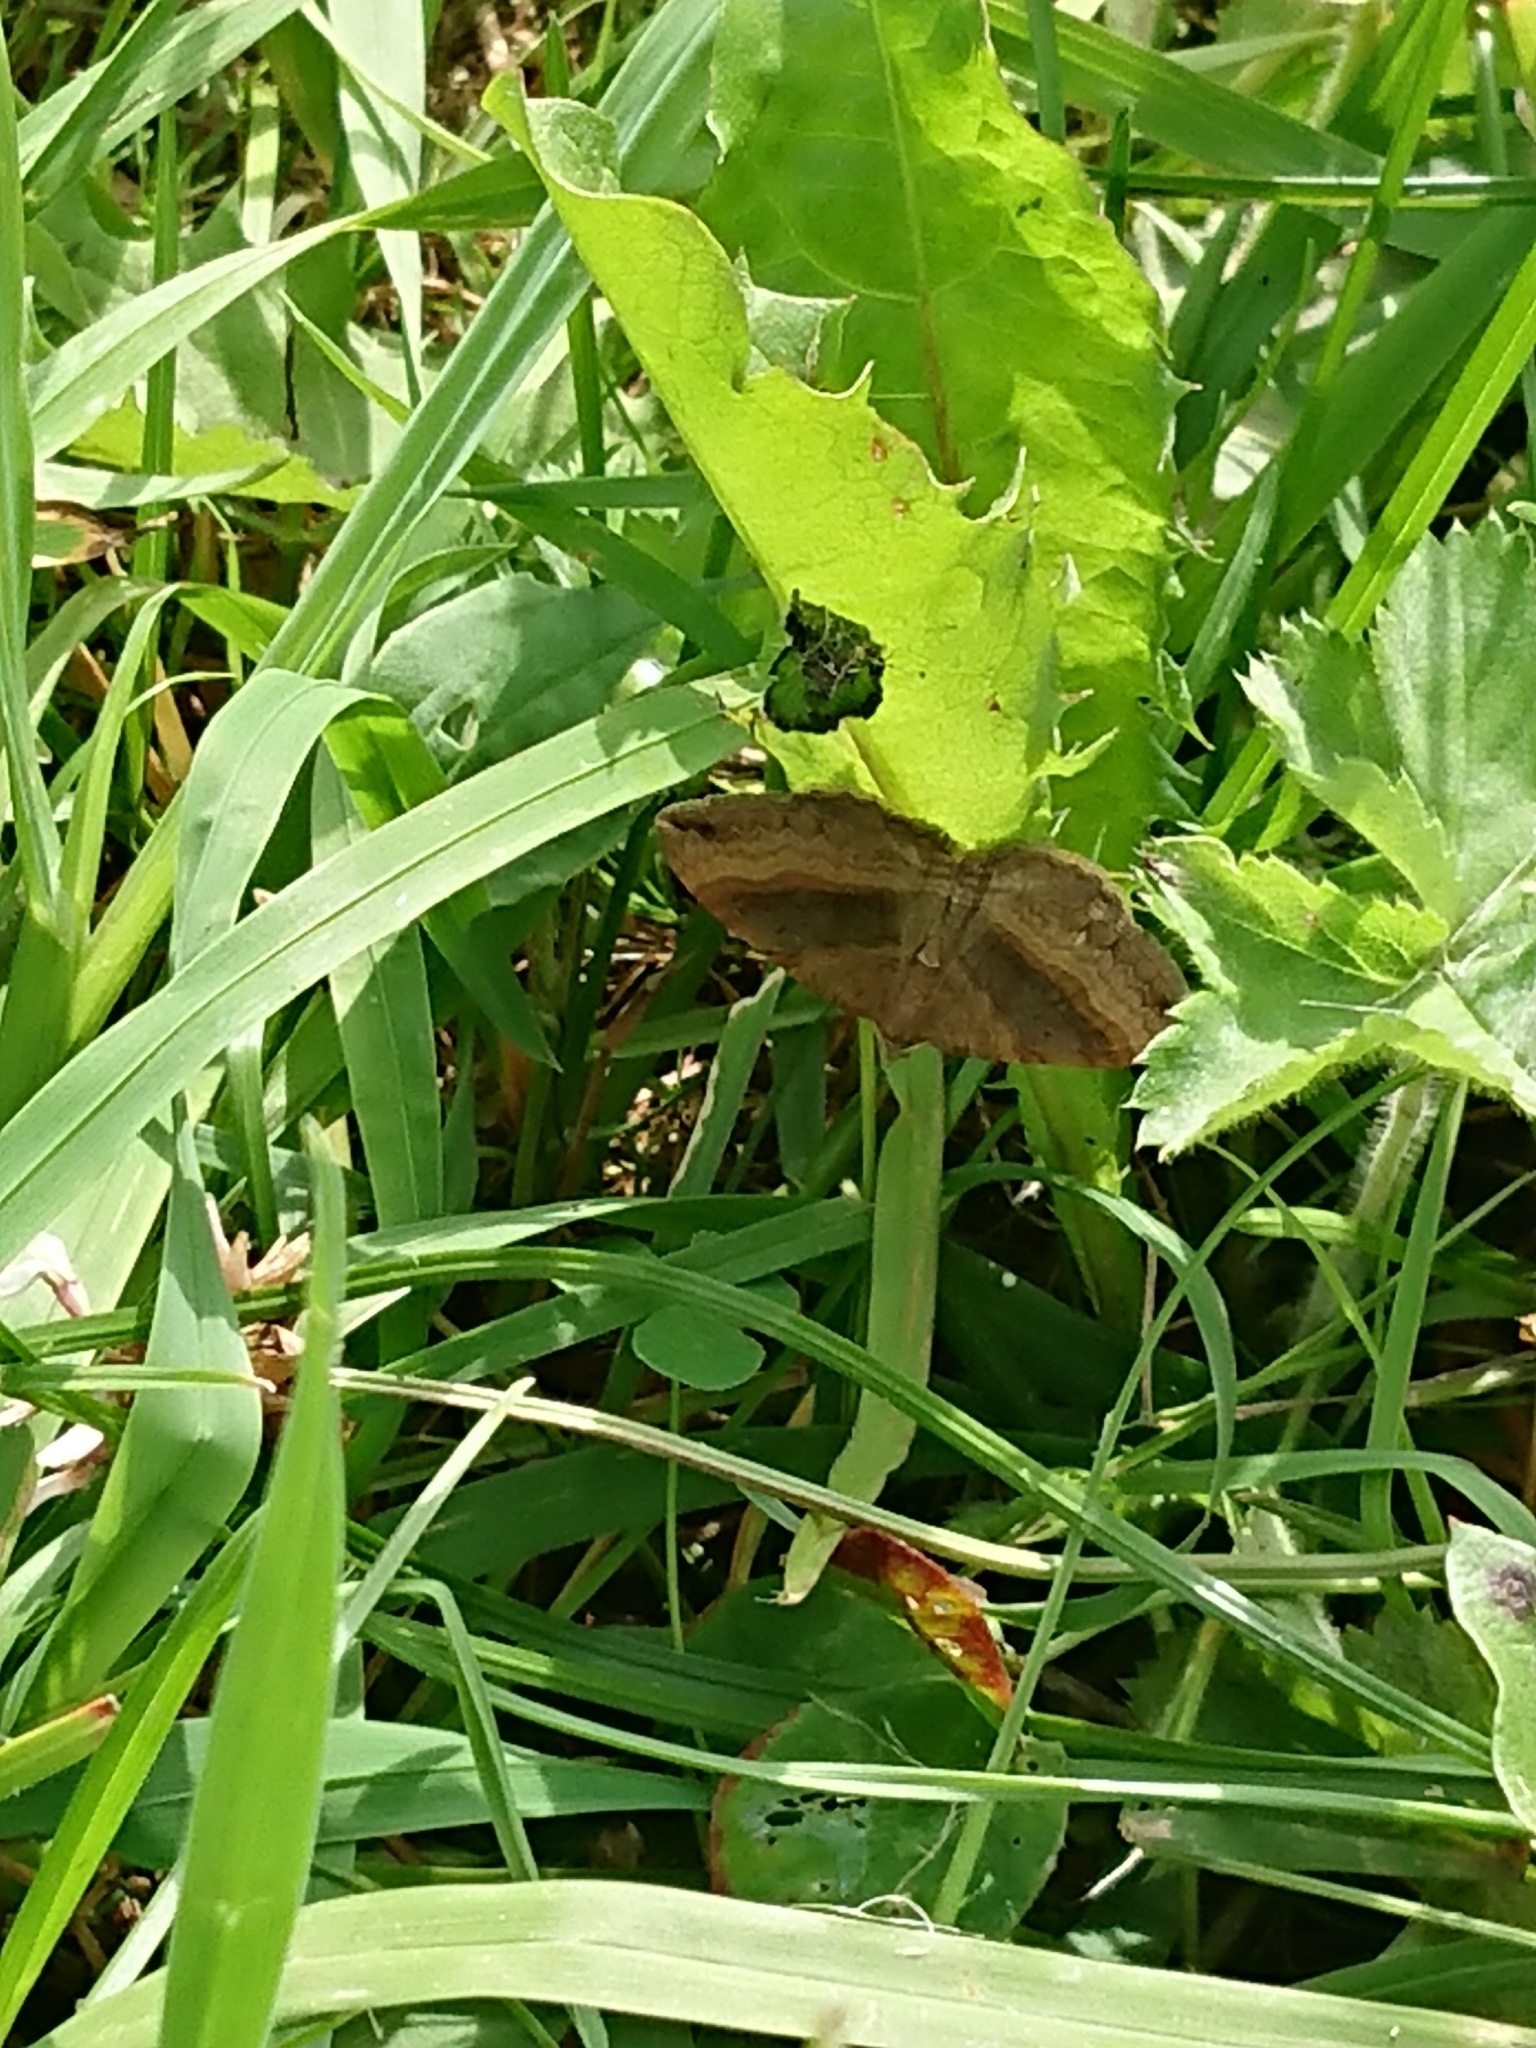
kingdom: Animalia
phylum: Arthropoda
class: Insecta
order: Lepidoptera
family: Geometridae
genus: Scotopteryx
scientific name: Scotopteryx chenopodiata
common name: Shaded broad-bar
